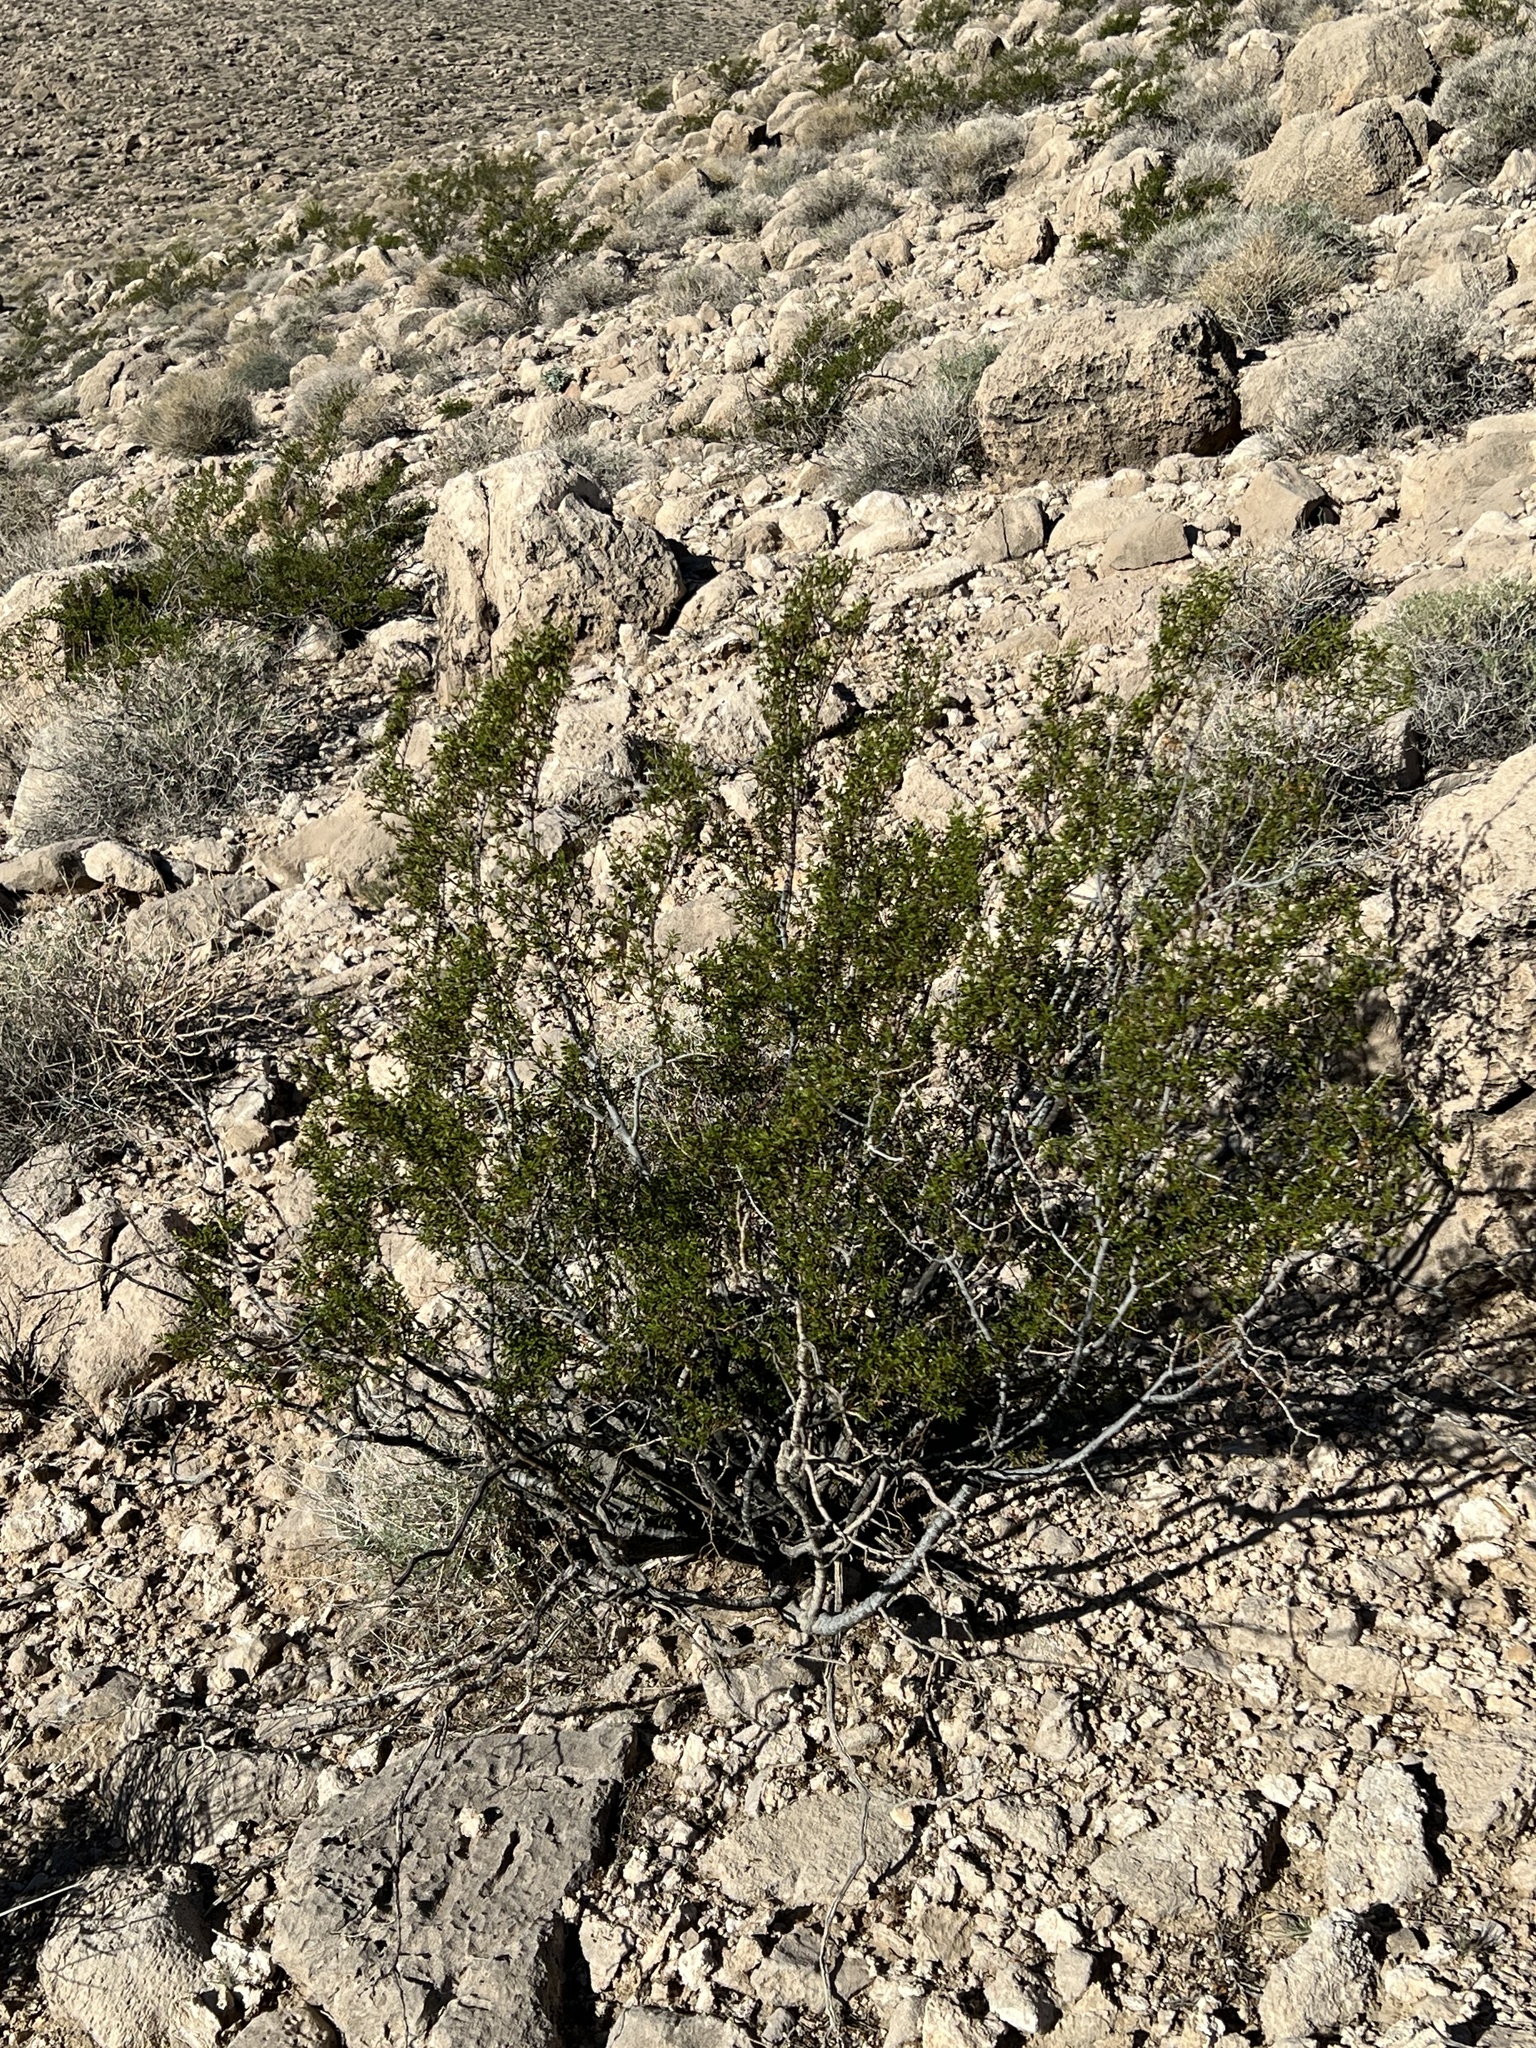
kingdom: Plantae
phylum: Tracheophyta
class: Magnoliopsida
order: Zygophyllales
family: Zygophyllaceae
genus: Larrea
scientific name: Larrea tridentata
